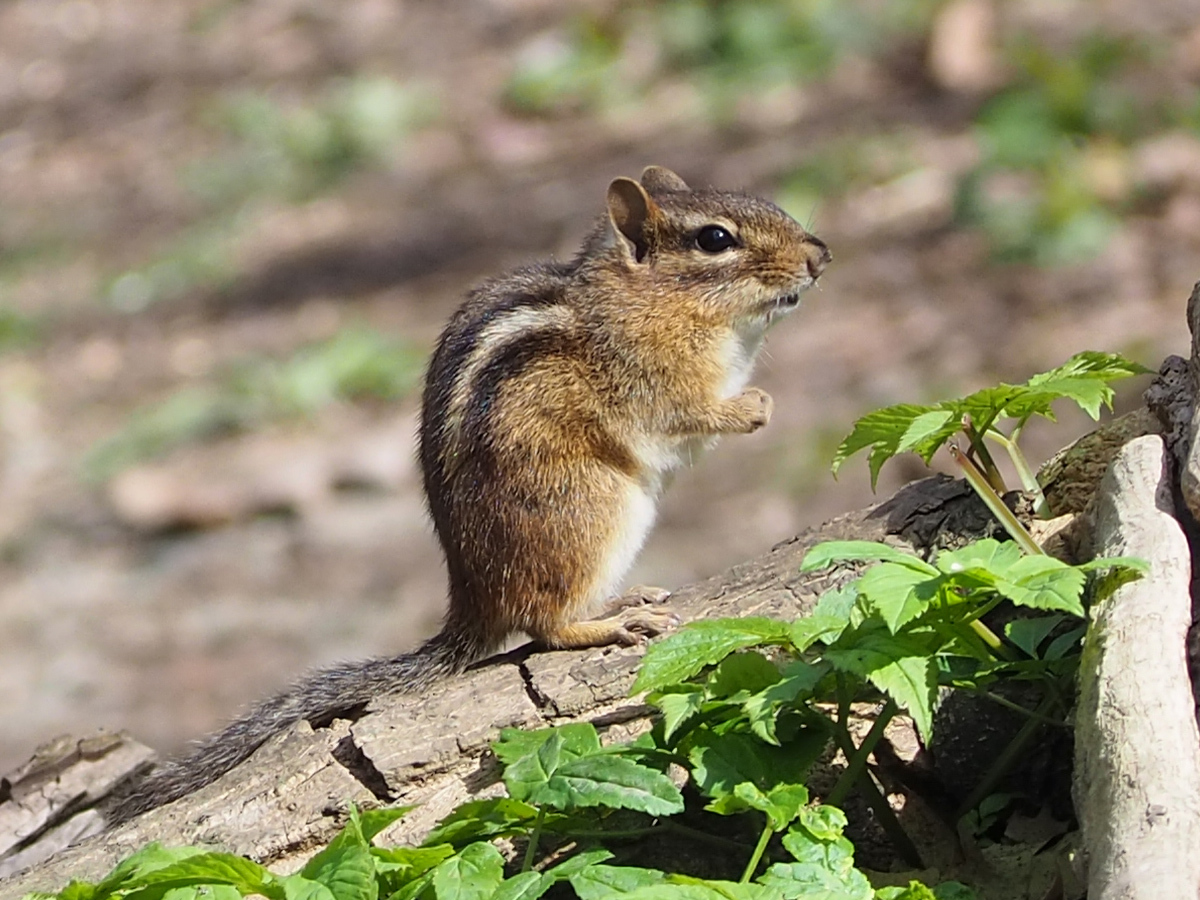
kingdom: Animalia
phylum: Chordata
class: Mammalia
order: Rodentia
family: Sciuridae
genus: Tamias
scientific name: Tamias striatus
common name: Eastern chipmunk
